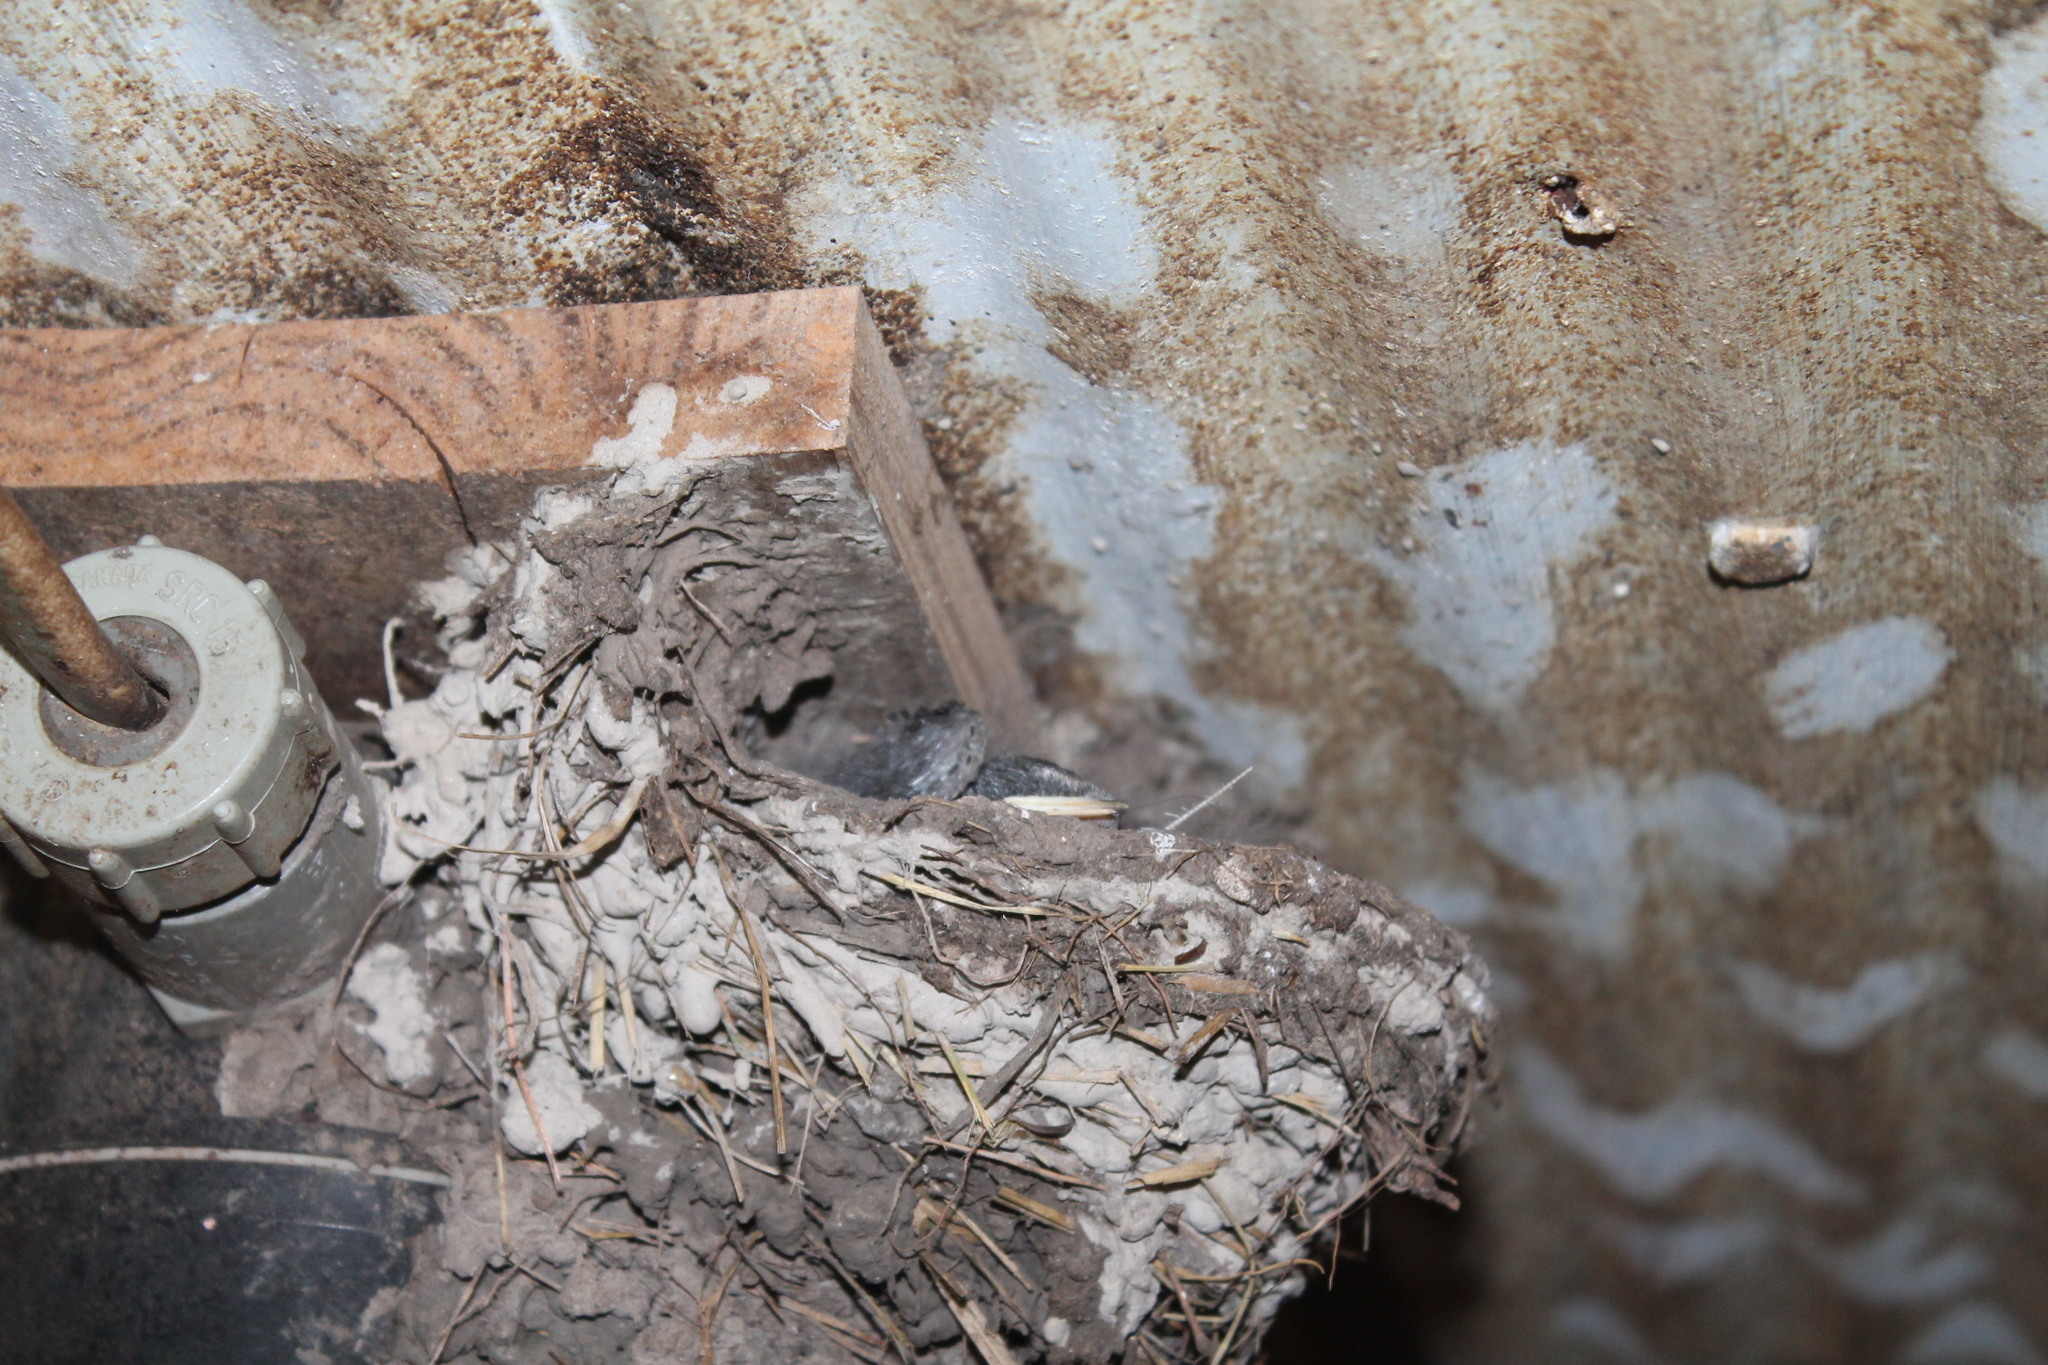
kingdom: Animalia
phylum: Chordata
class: Aves
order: Passeriformes
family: Hirundinidae
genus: Hirundo
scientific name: Hirundo rustica
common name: Barn swallow
